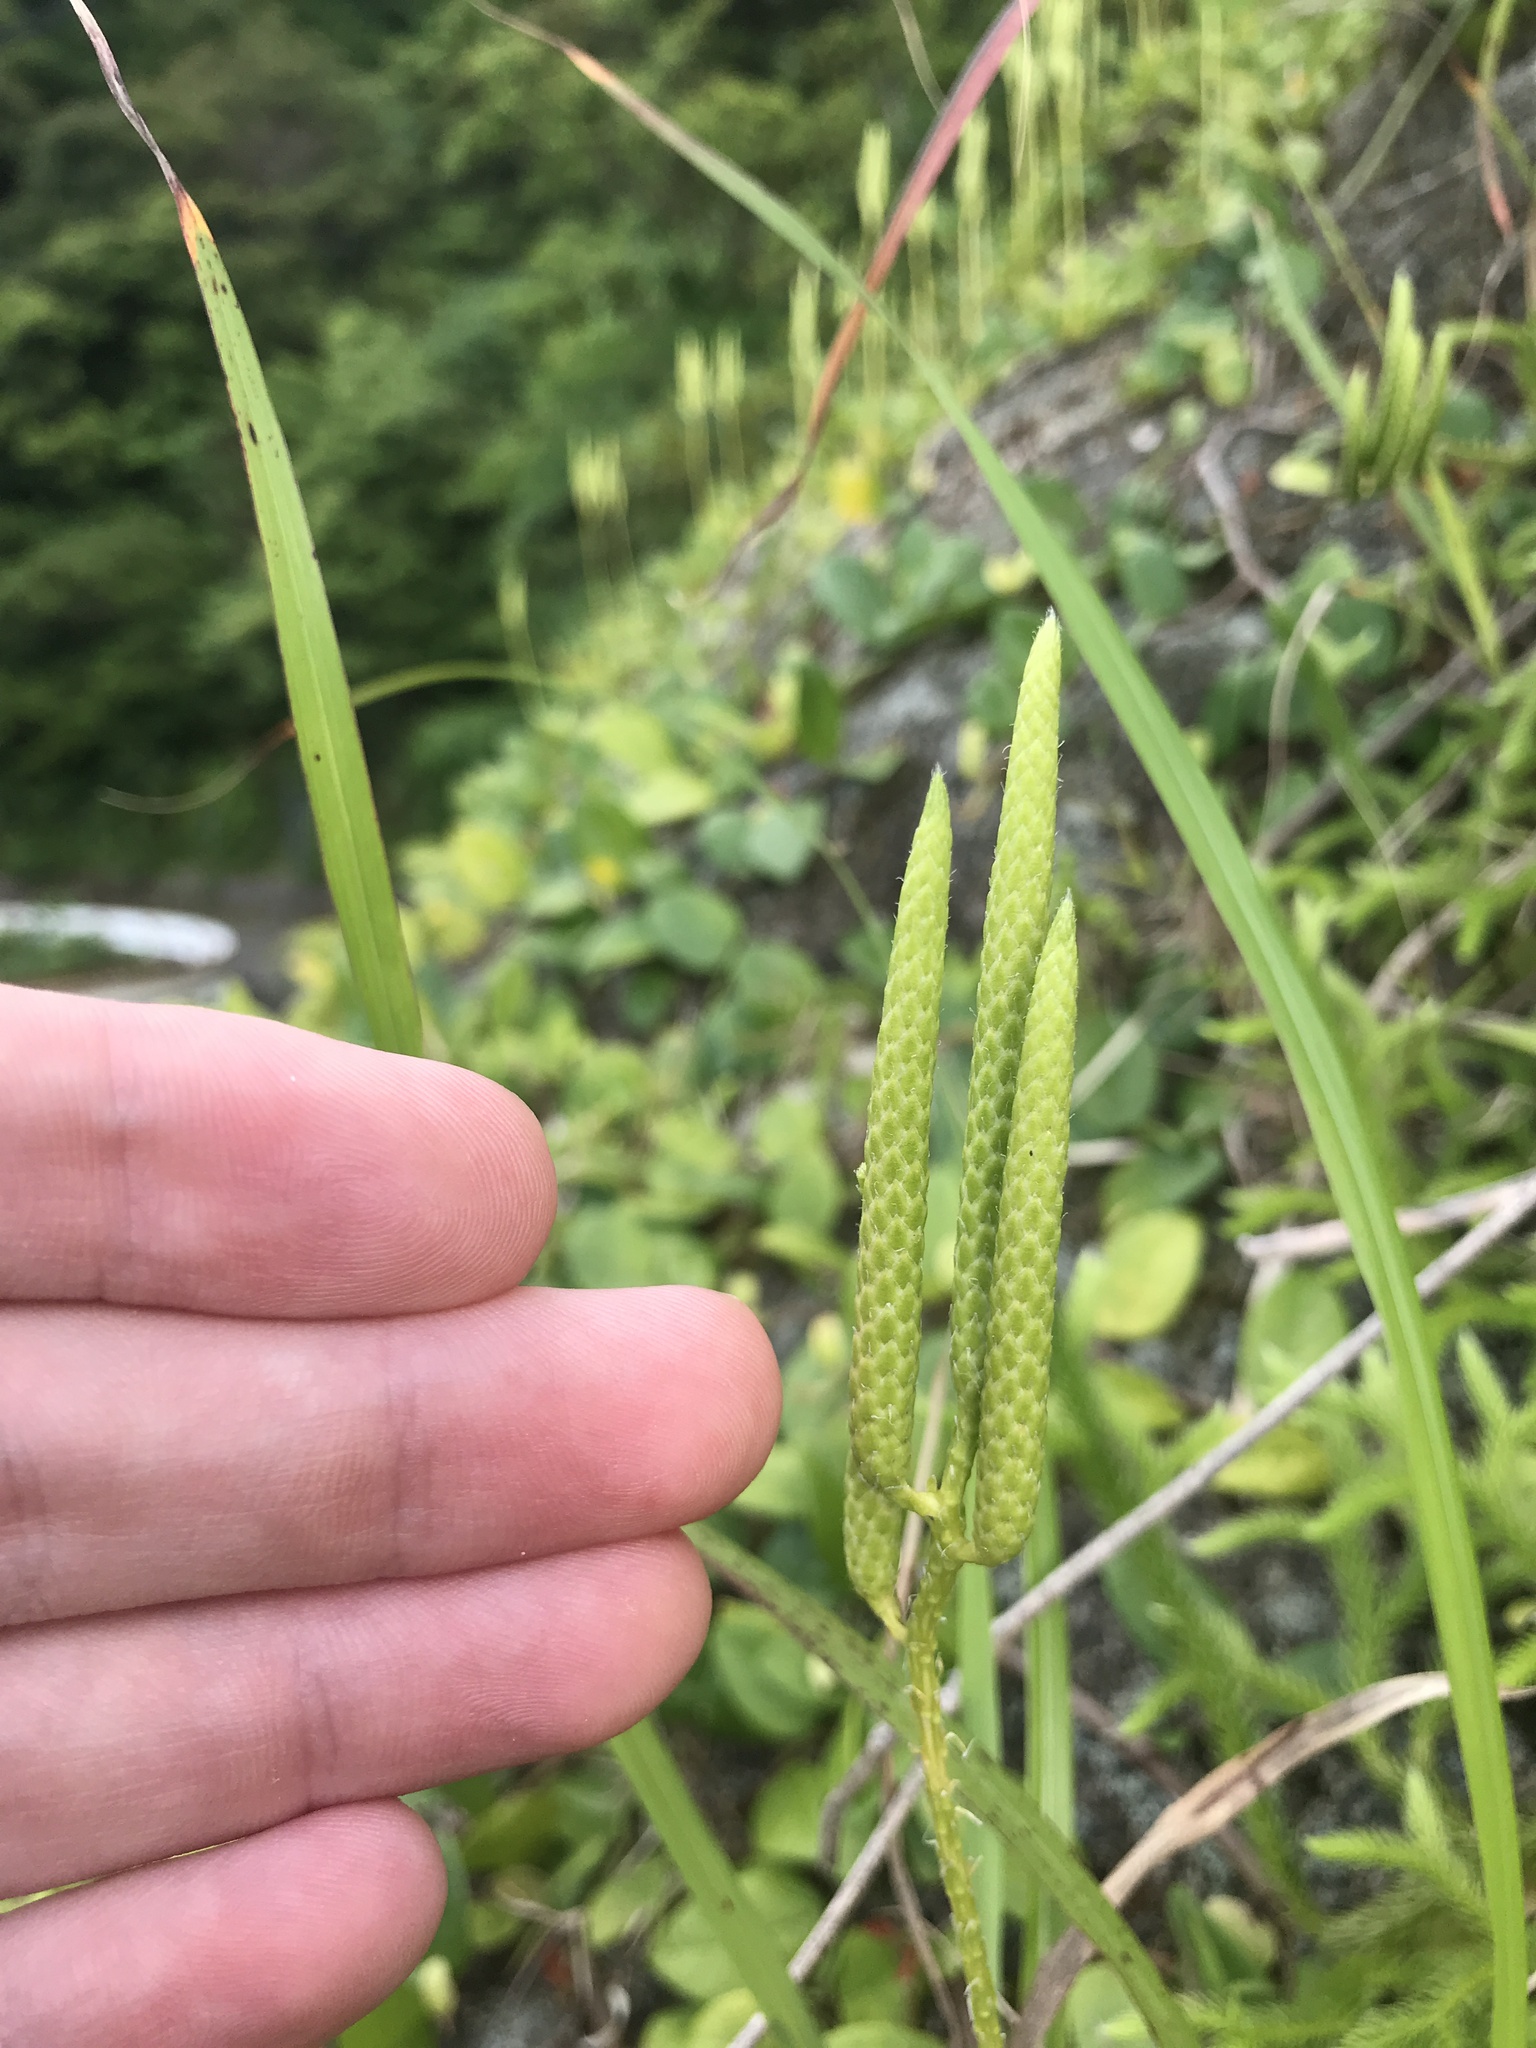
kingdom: Plantae
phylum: Tracheophyta
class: Lycopodiopsida
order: Lycopodiales
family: Lycopodiaceae
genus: Lycopodium
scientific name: Lycopodium clavatum
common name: Stag's-horn clubmoss
